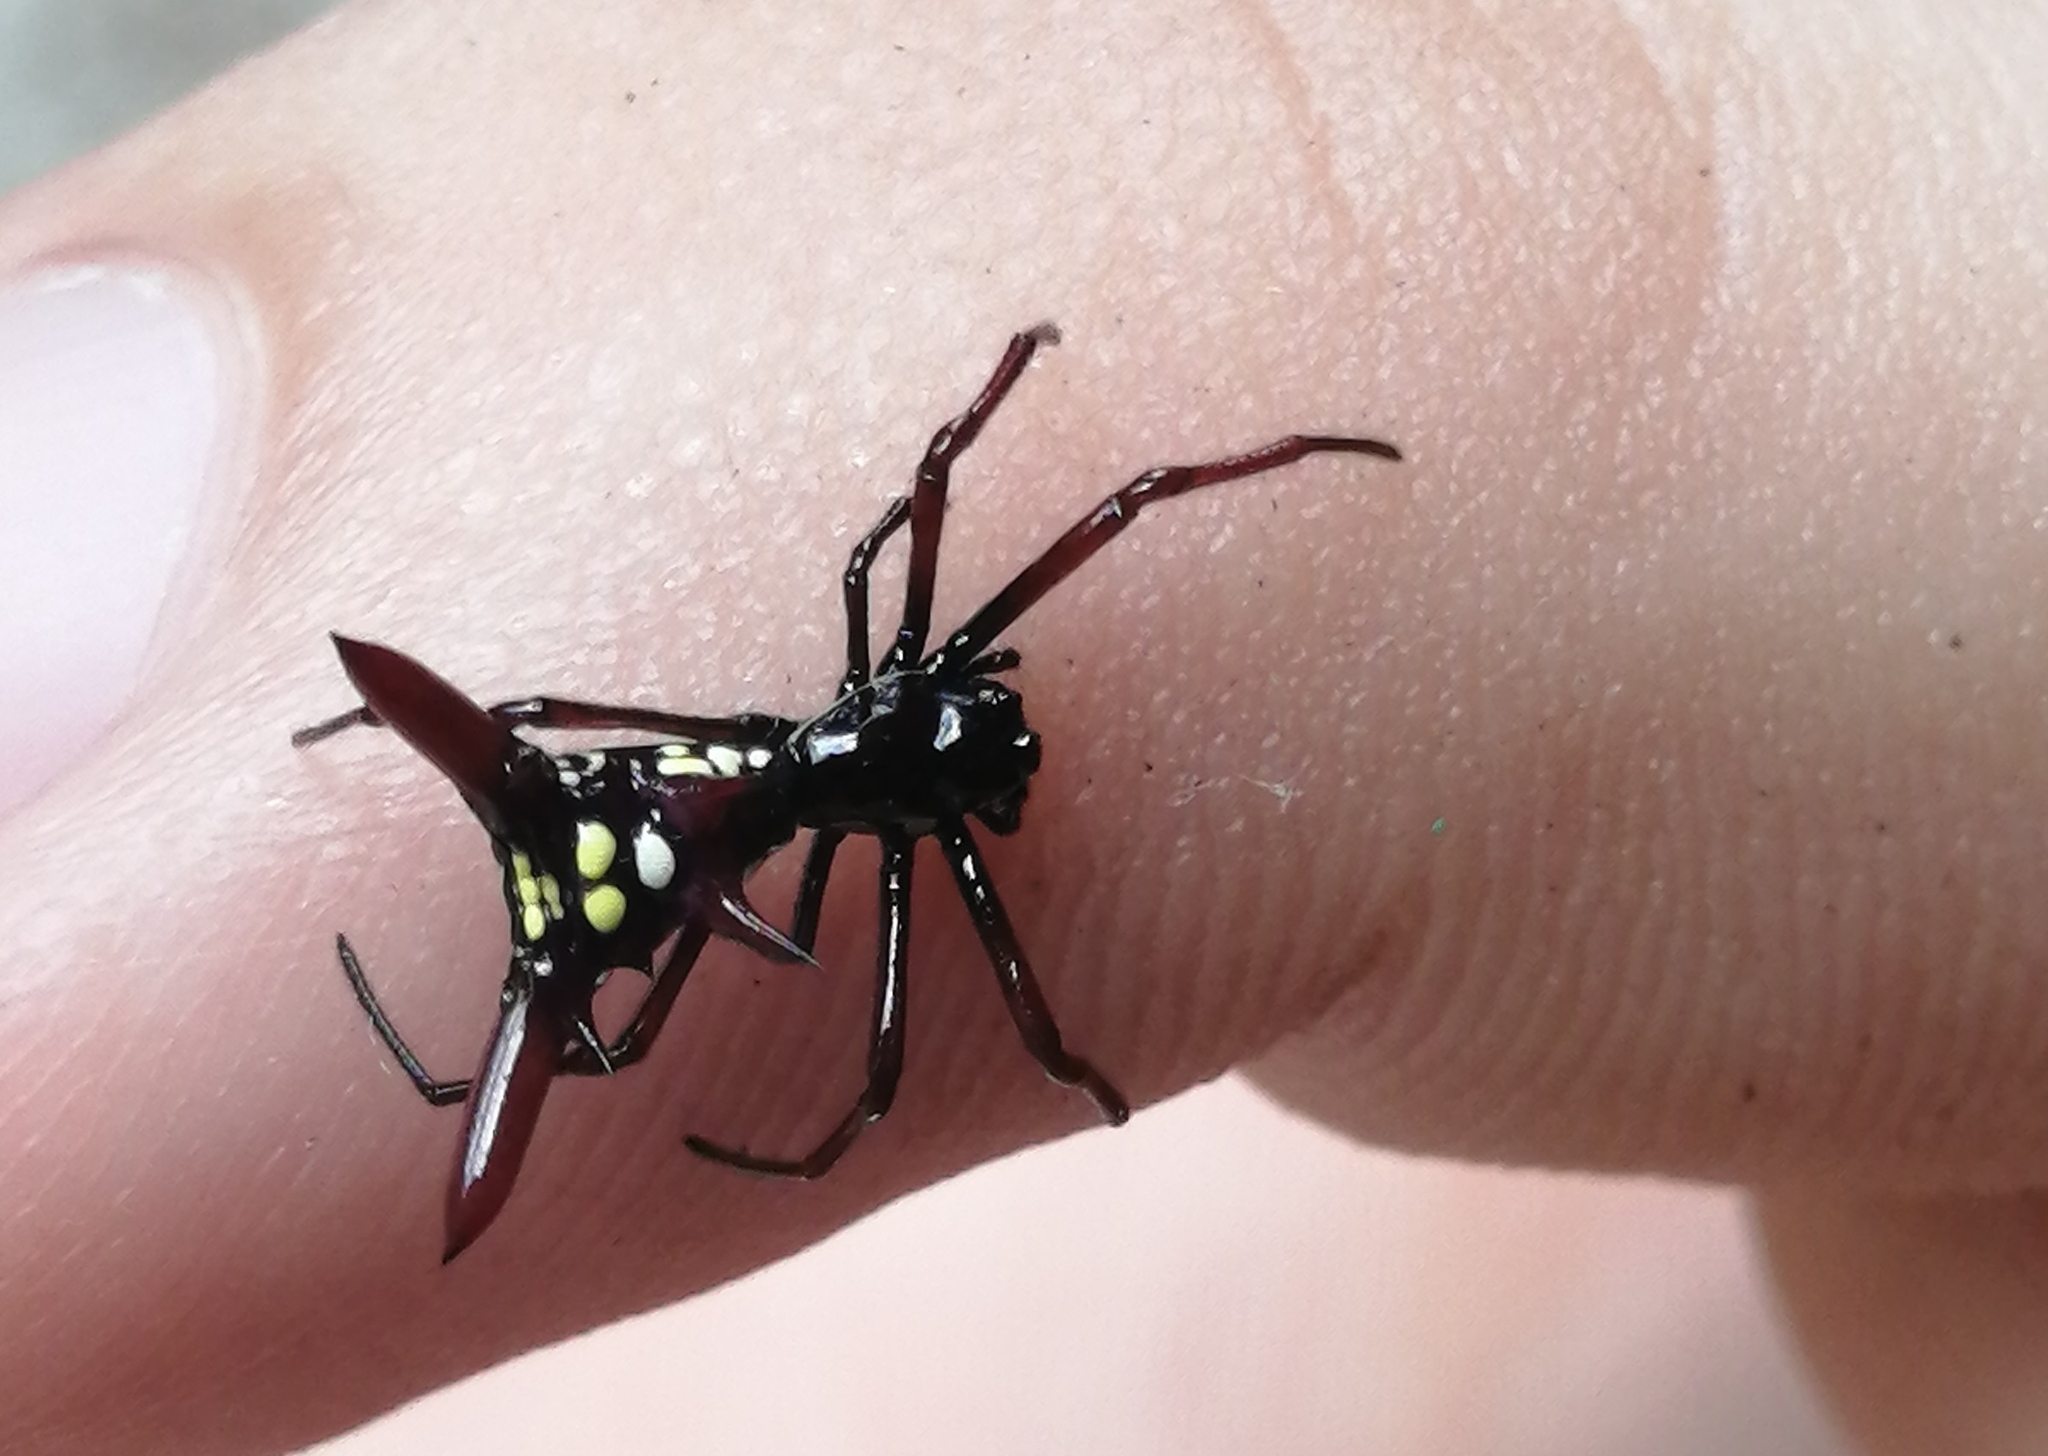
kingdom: Animalia
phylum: Arthropoda
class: Arachnida
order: Araneae
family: Araneidae
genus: Micrathena
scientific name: Micrathena sexspinosa
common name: Orb weavers
